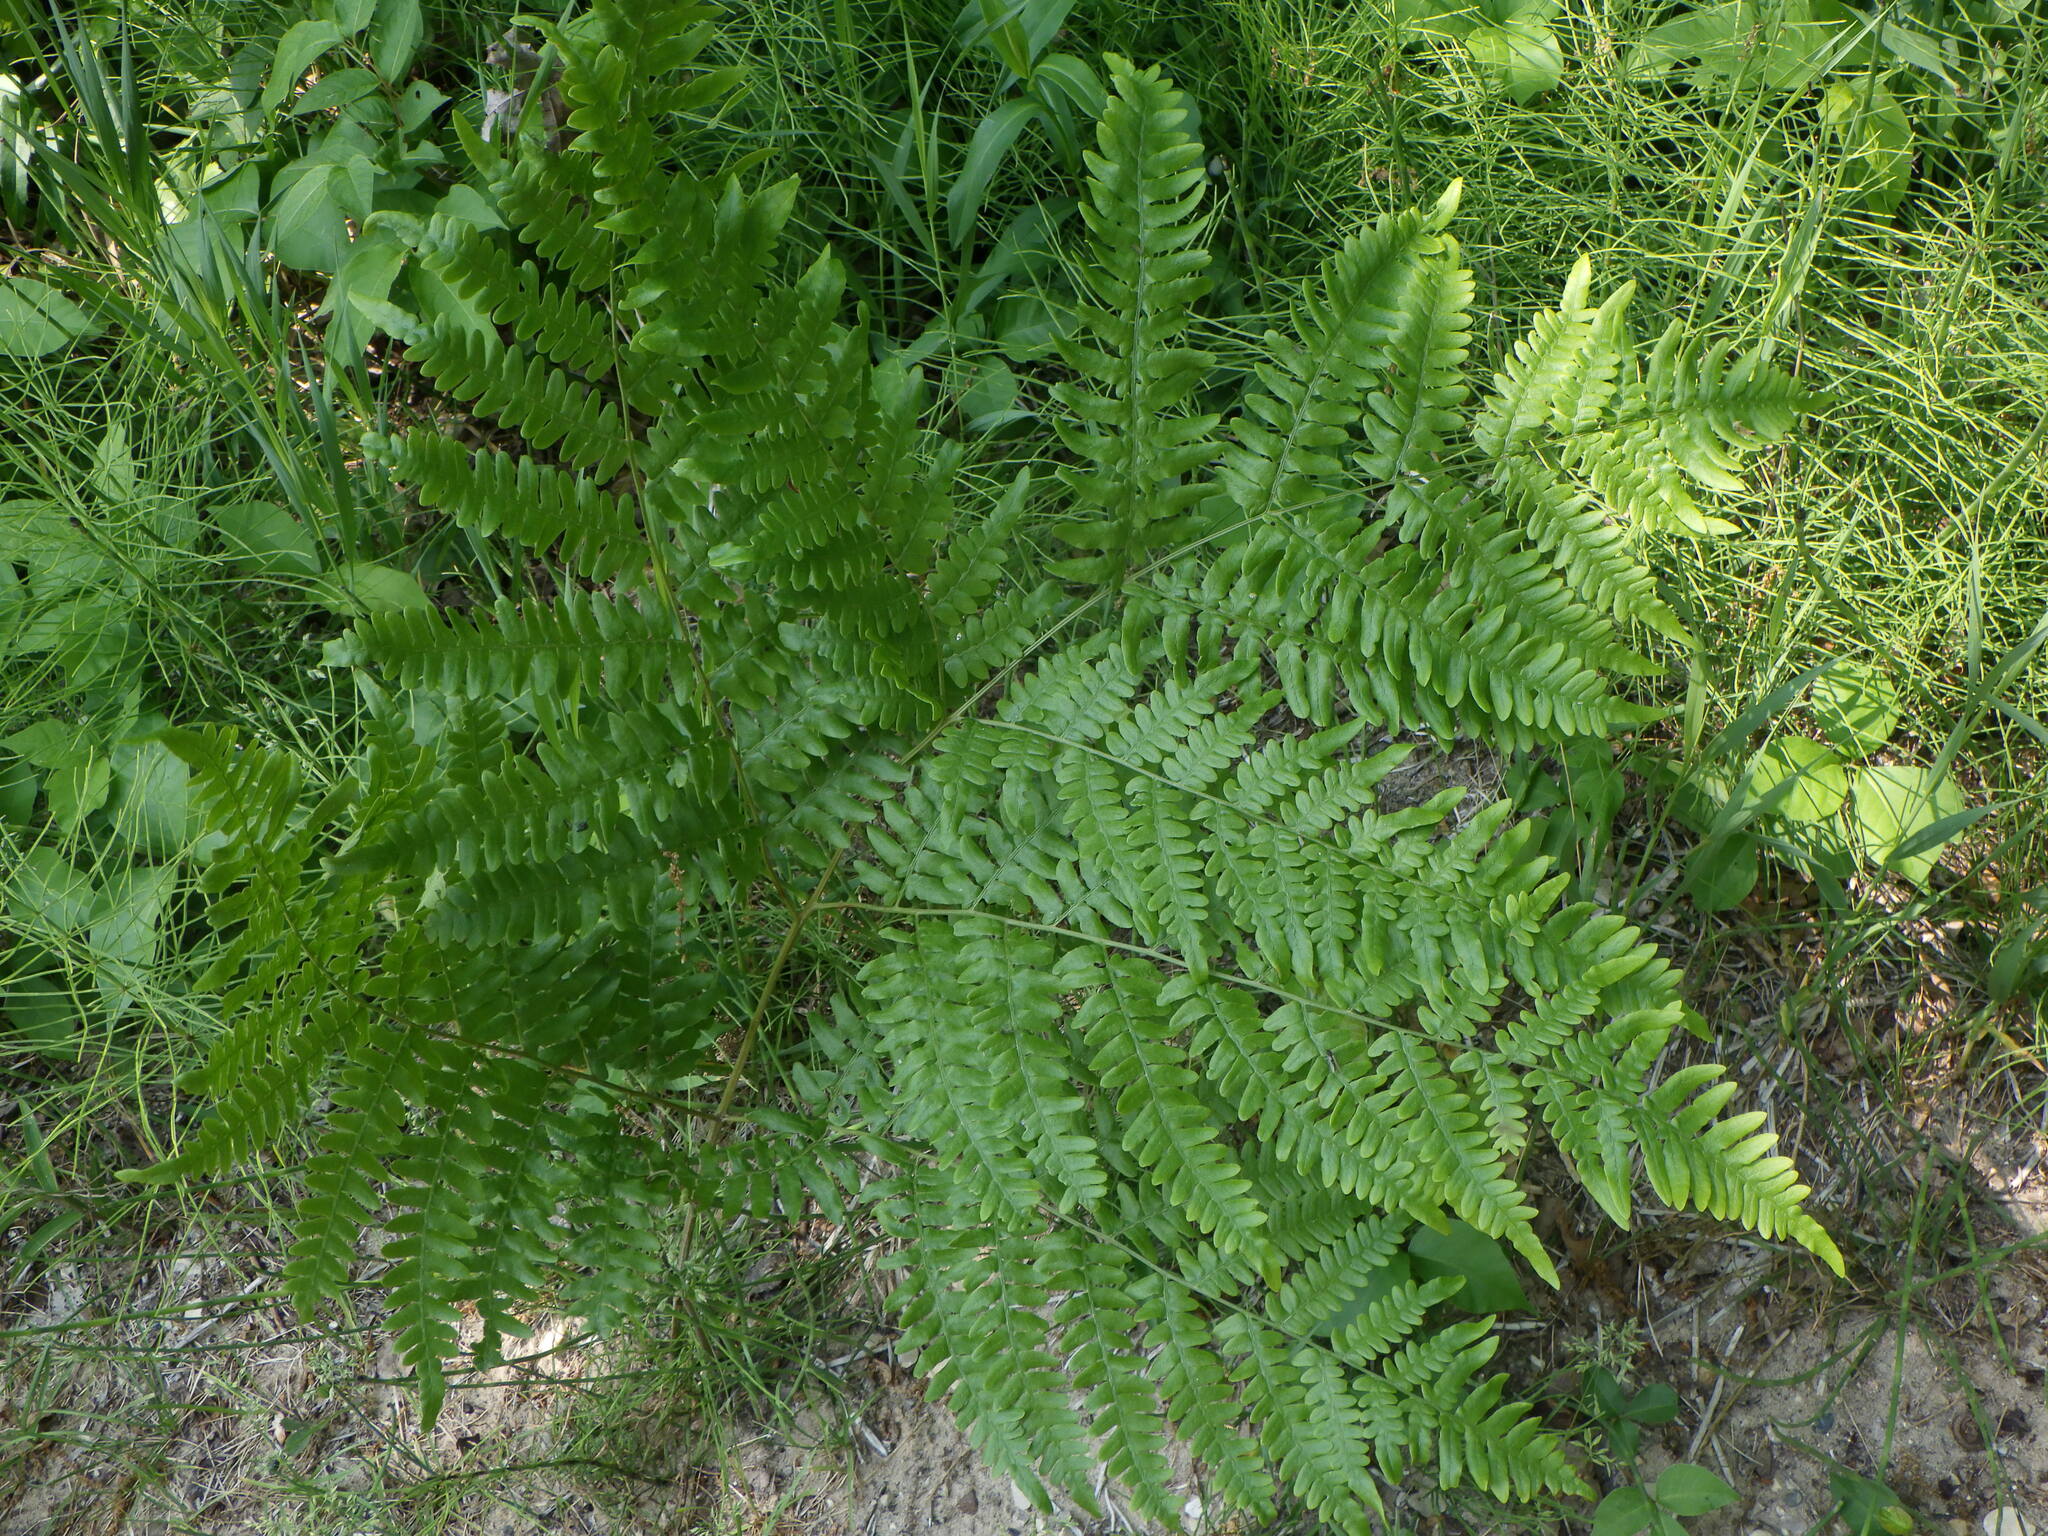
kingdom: Plantae
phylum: Tracheophyta
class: Polypodiopsida
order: Polypodiales
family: Dennstaedtiaceae
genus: Pteridium
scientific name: Pteridium aquilinum
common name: Bracken
